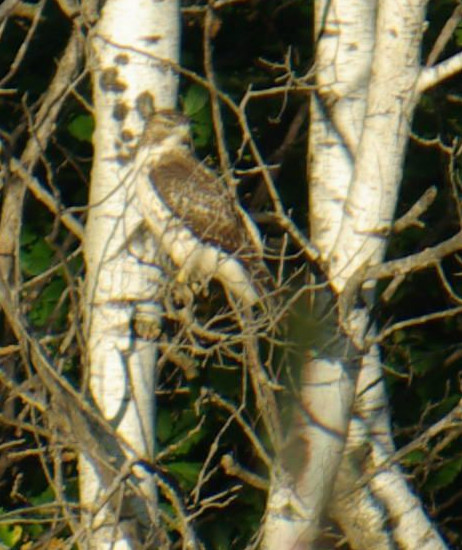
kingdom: Animalia
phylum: Chordata
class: Aves
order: Accipitriformes
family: Accipitridae
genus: Buteo
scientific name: Buteo jamaicensis
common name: Red-tailed hawk
